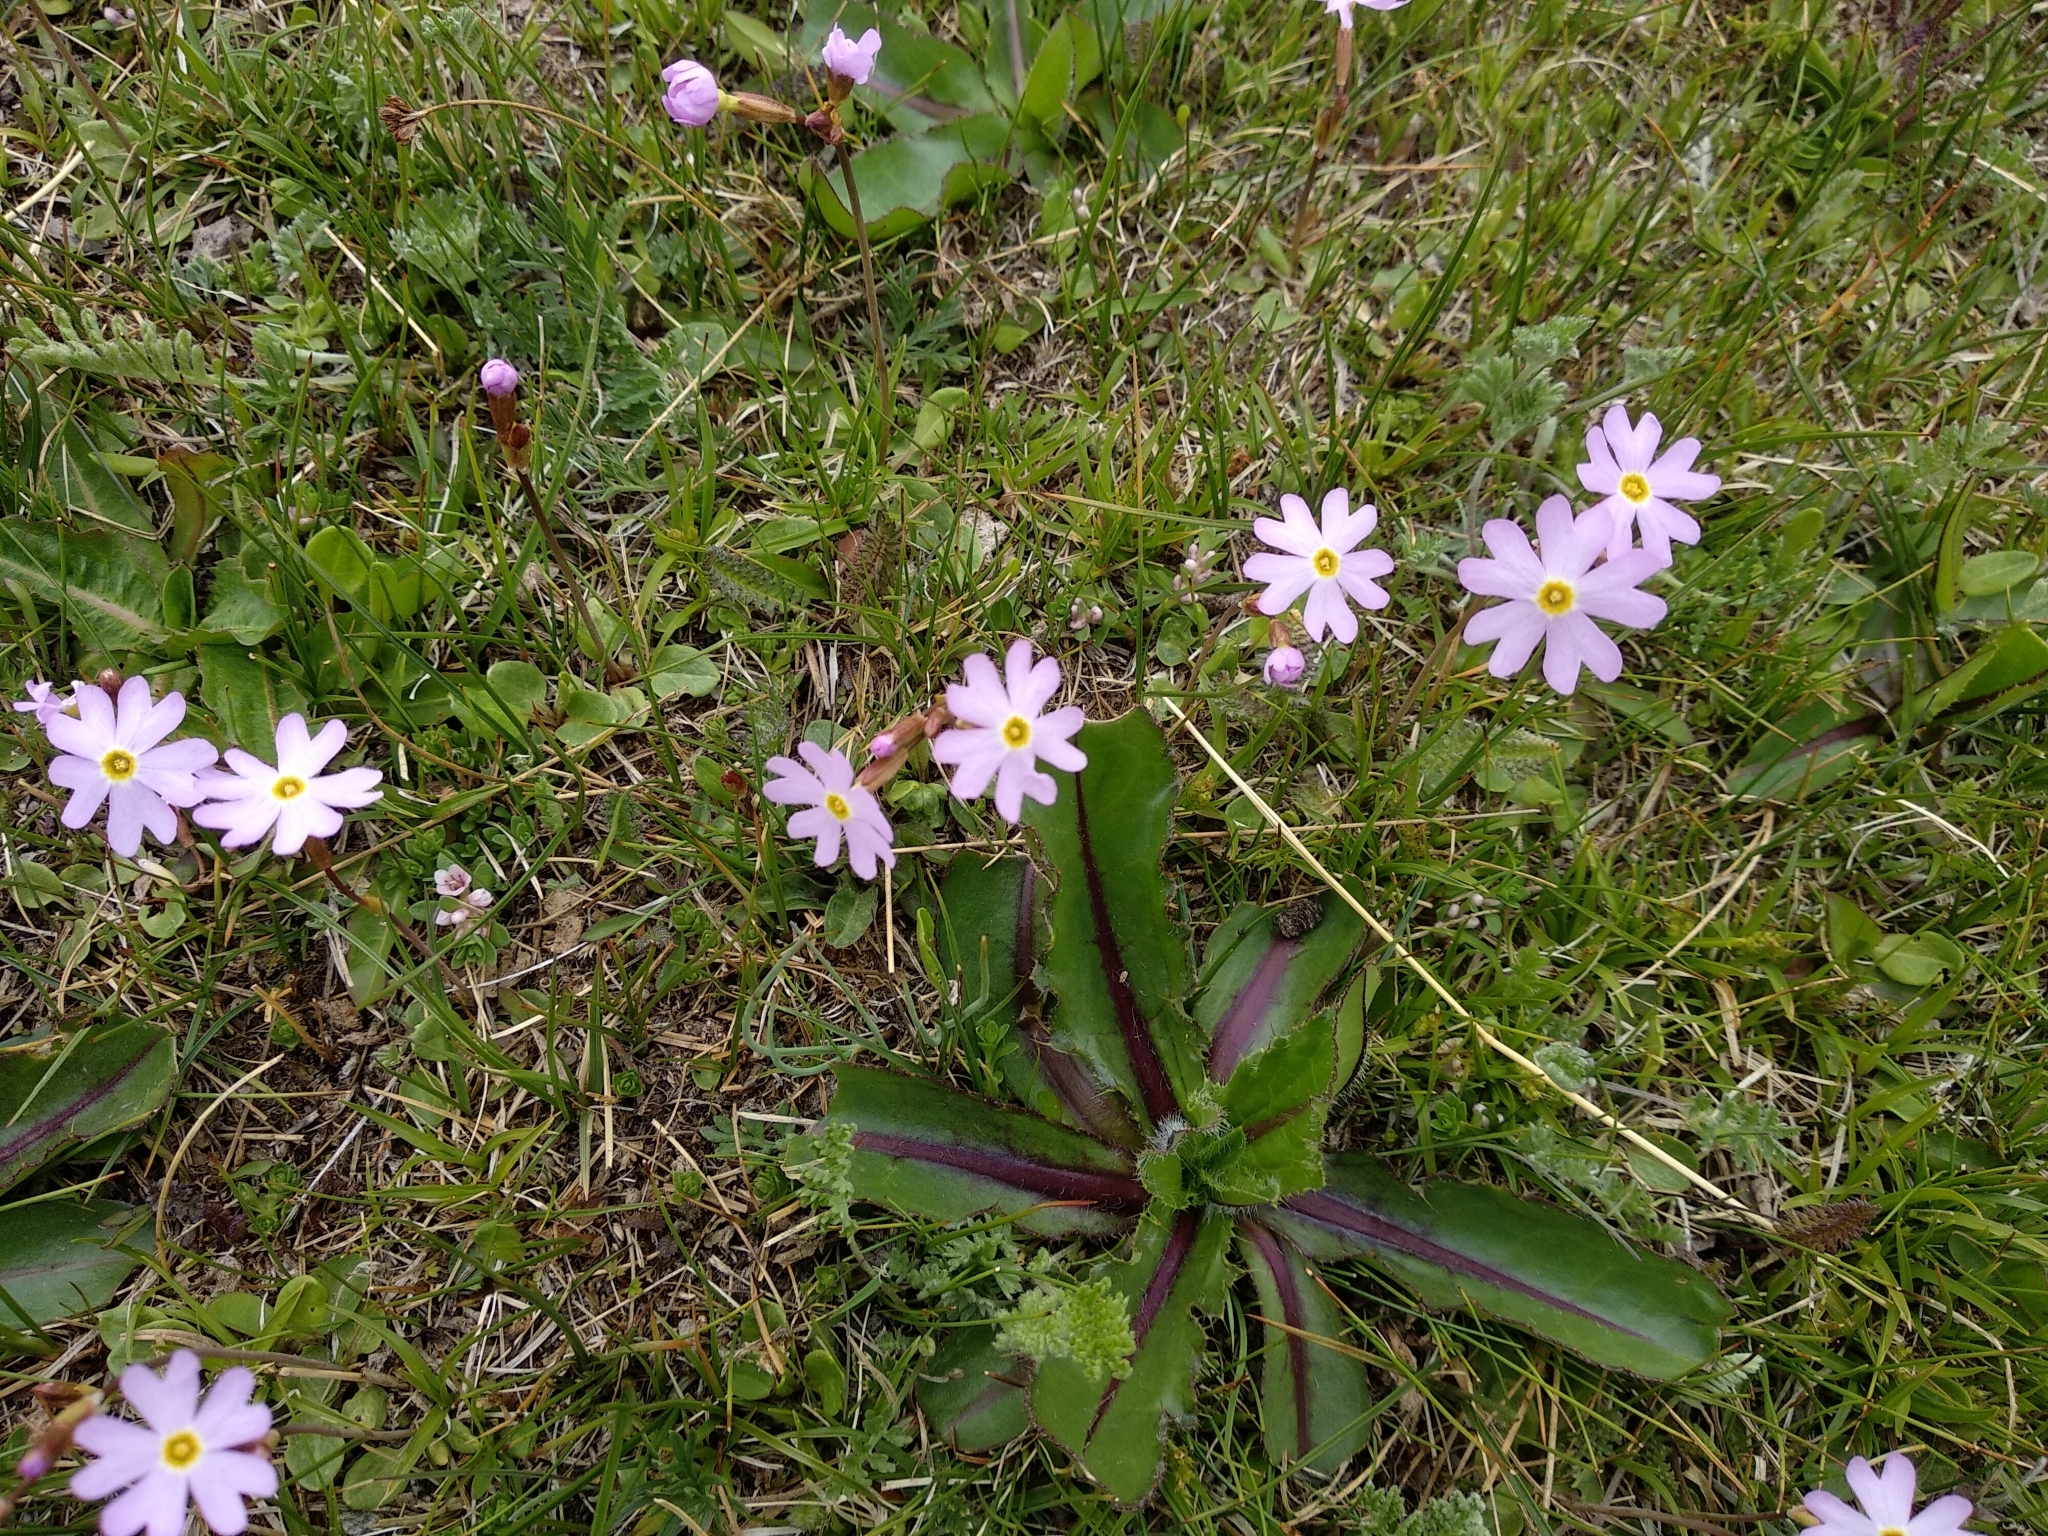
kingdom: Plantae
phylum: Tracheophyta
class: Magnoliopsida
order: Ericales
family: Primulaceae
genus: Primula
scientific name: Primula nutans
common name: Siberian primrose
